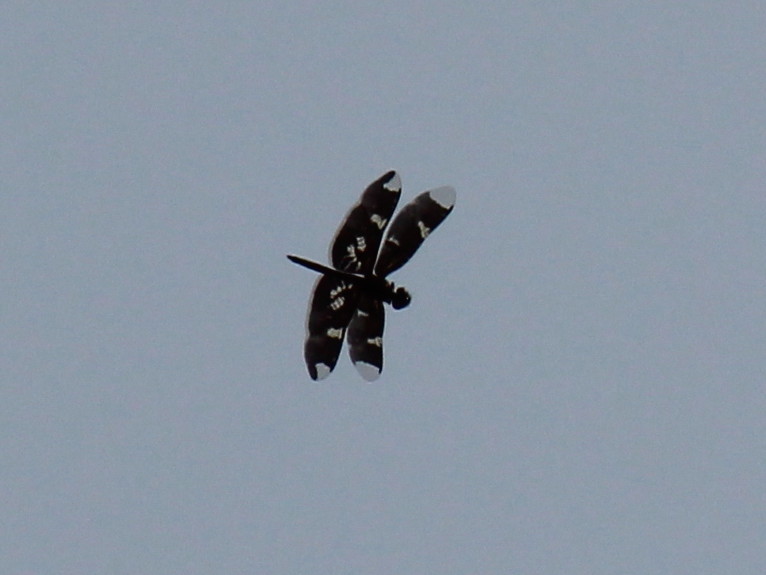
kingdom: Animalia
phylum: Arthropoda
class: Insecta
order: Odonata
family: Libellulidae
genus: Rhyothemis
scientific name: Rhyothemis fenestrina
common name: Skylight flutterer
